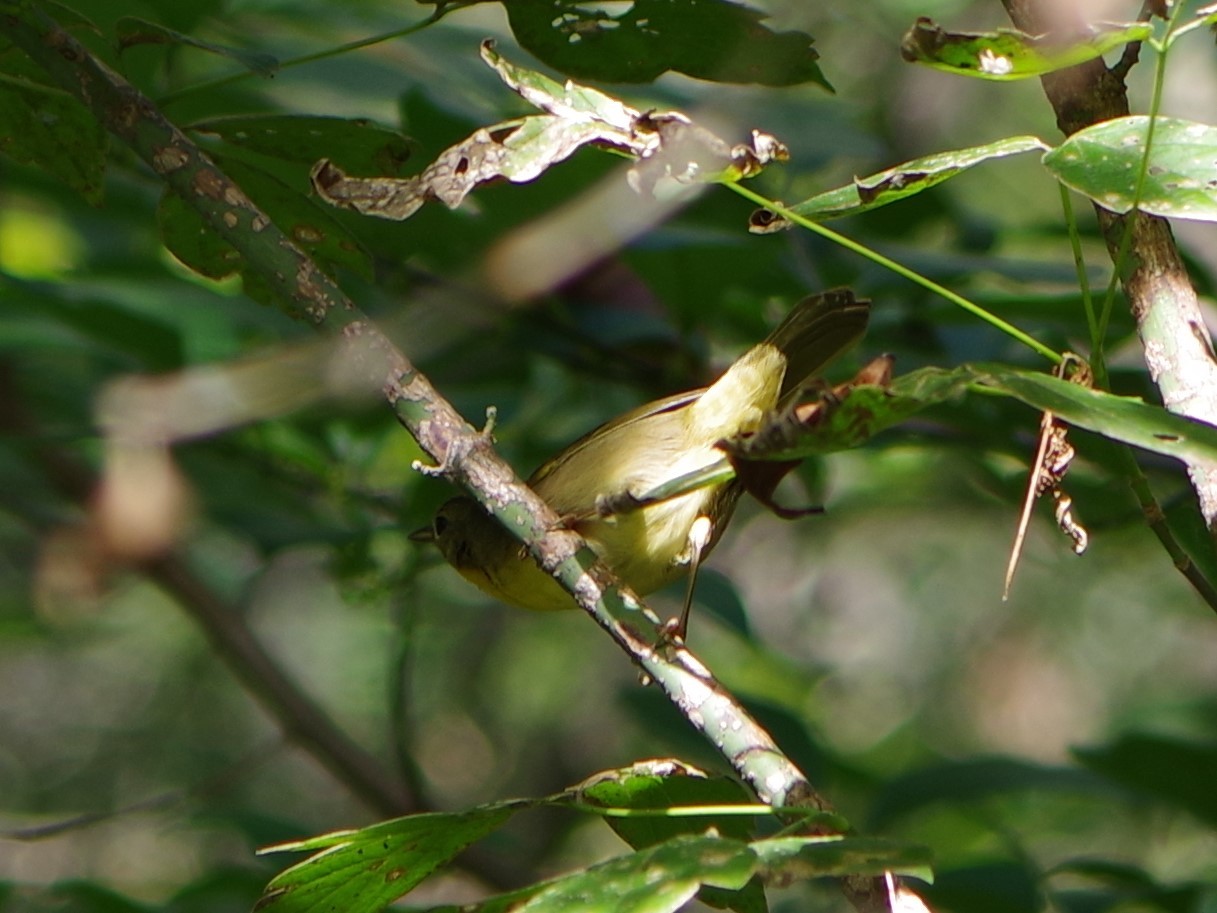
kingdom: Animalia
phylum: Chordata
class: Aves
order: Passeriformes
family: Parulidae
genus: Geothlypis
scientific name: Geothlypis trichas
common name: Common yellowthroat
